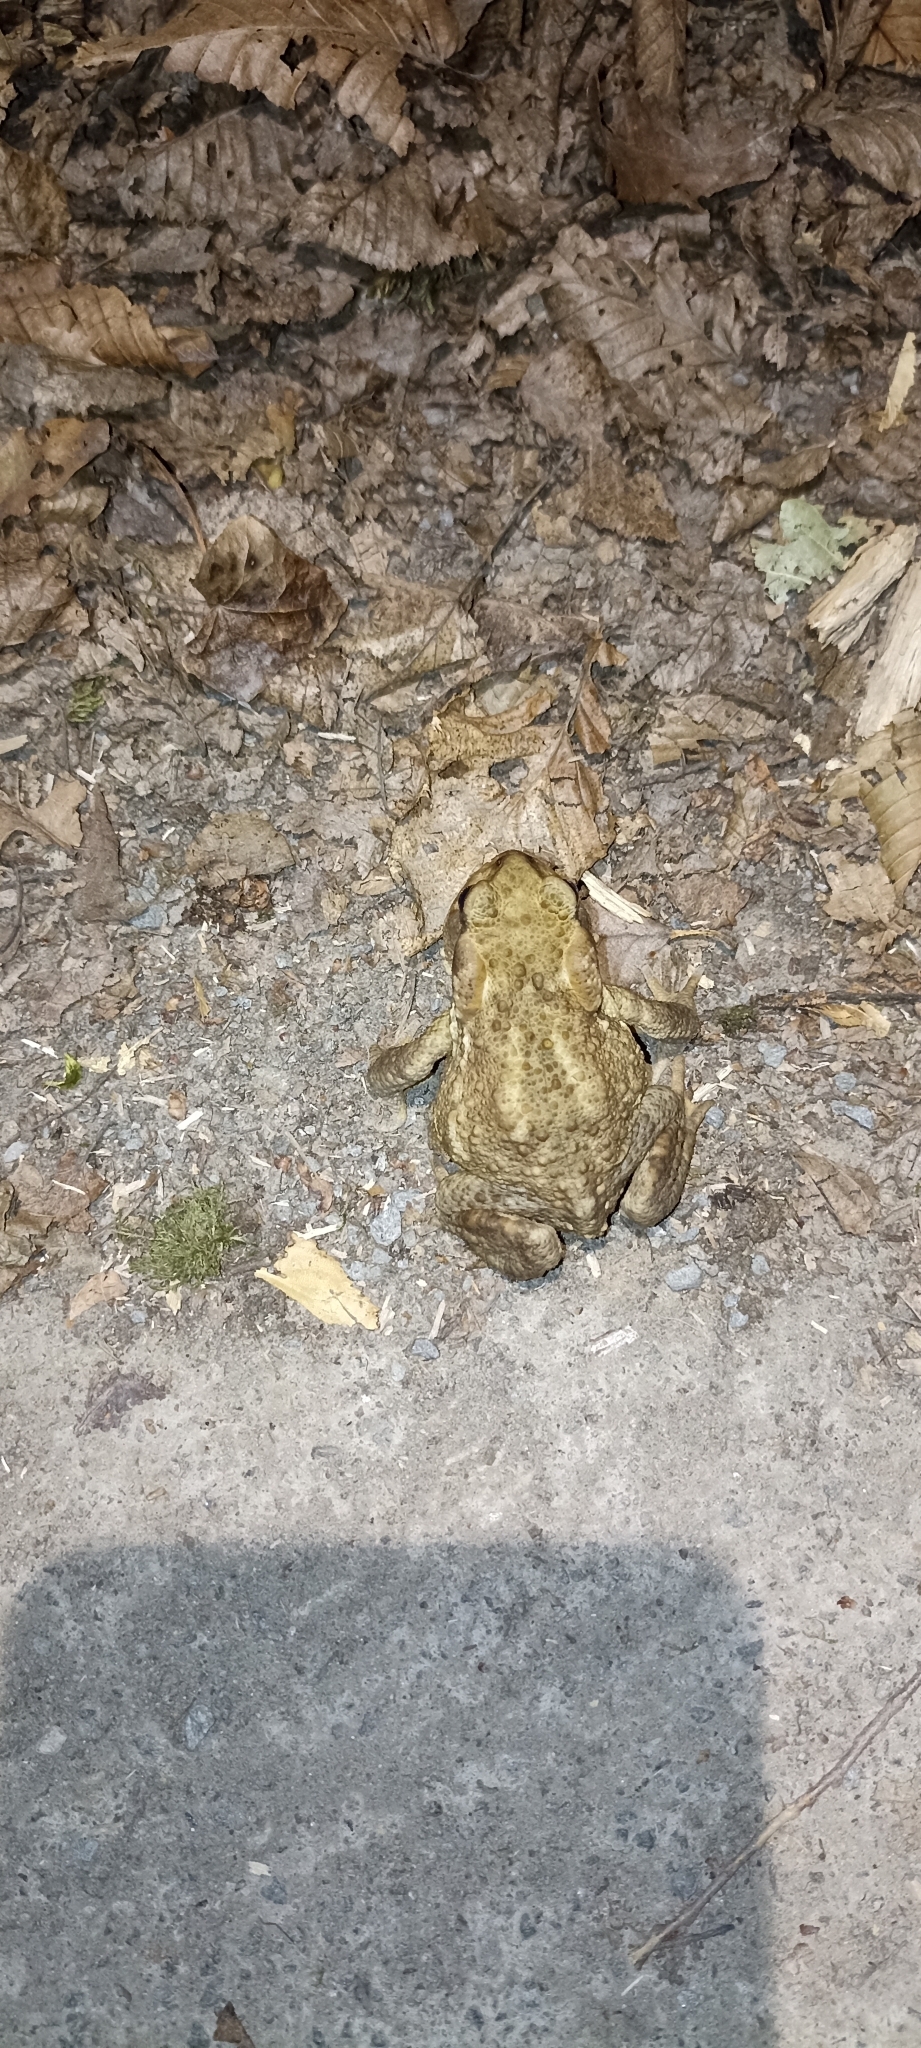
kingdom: Animalia
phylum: Chordata
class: Amphibia
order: Anura
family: Bufonidae
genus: Bufo
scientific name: Bufo spinosus
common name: Western common toad
